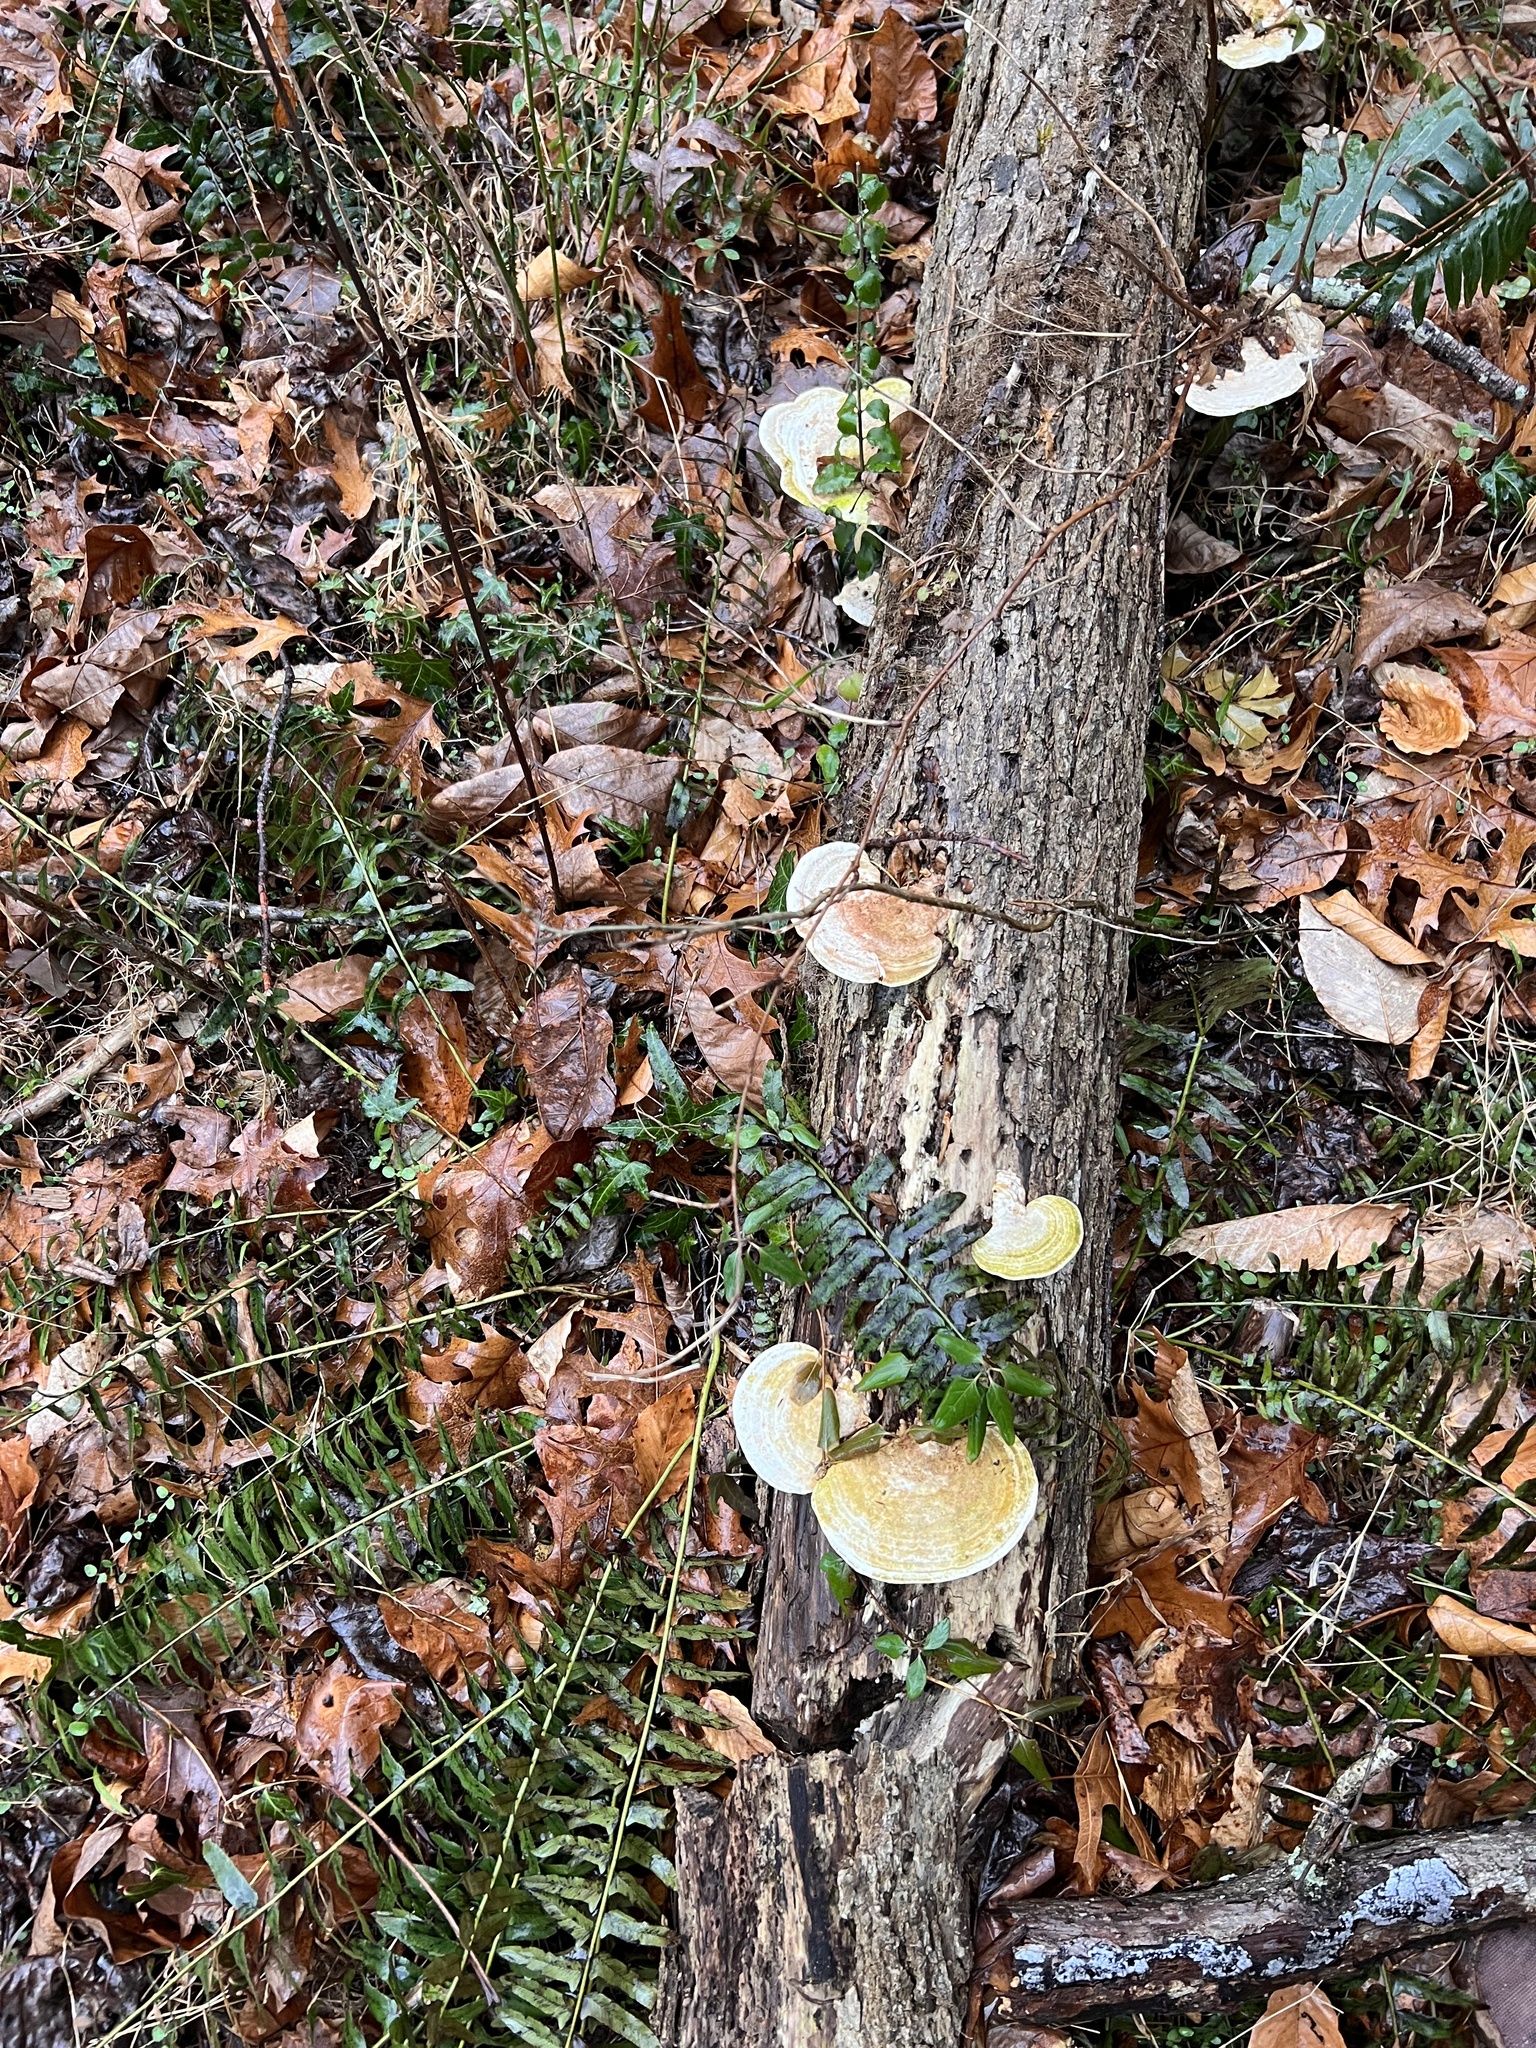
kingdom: Fungi
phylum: Basidiomycota
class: Agaricomycetes
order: Polyporales
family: Polyporaceae
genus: Trametes
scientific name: Trametes gibbosa
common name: Lumpy bracket
